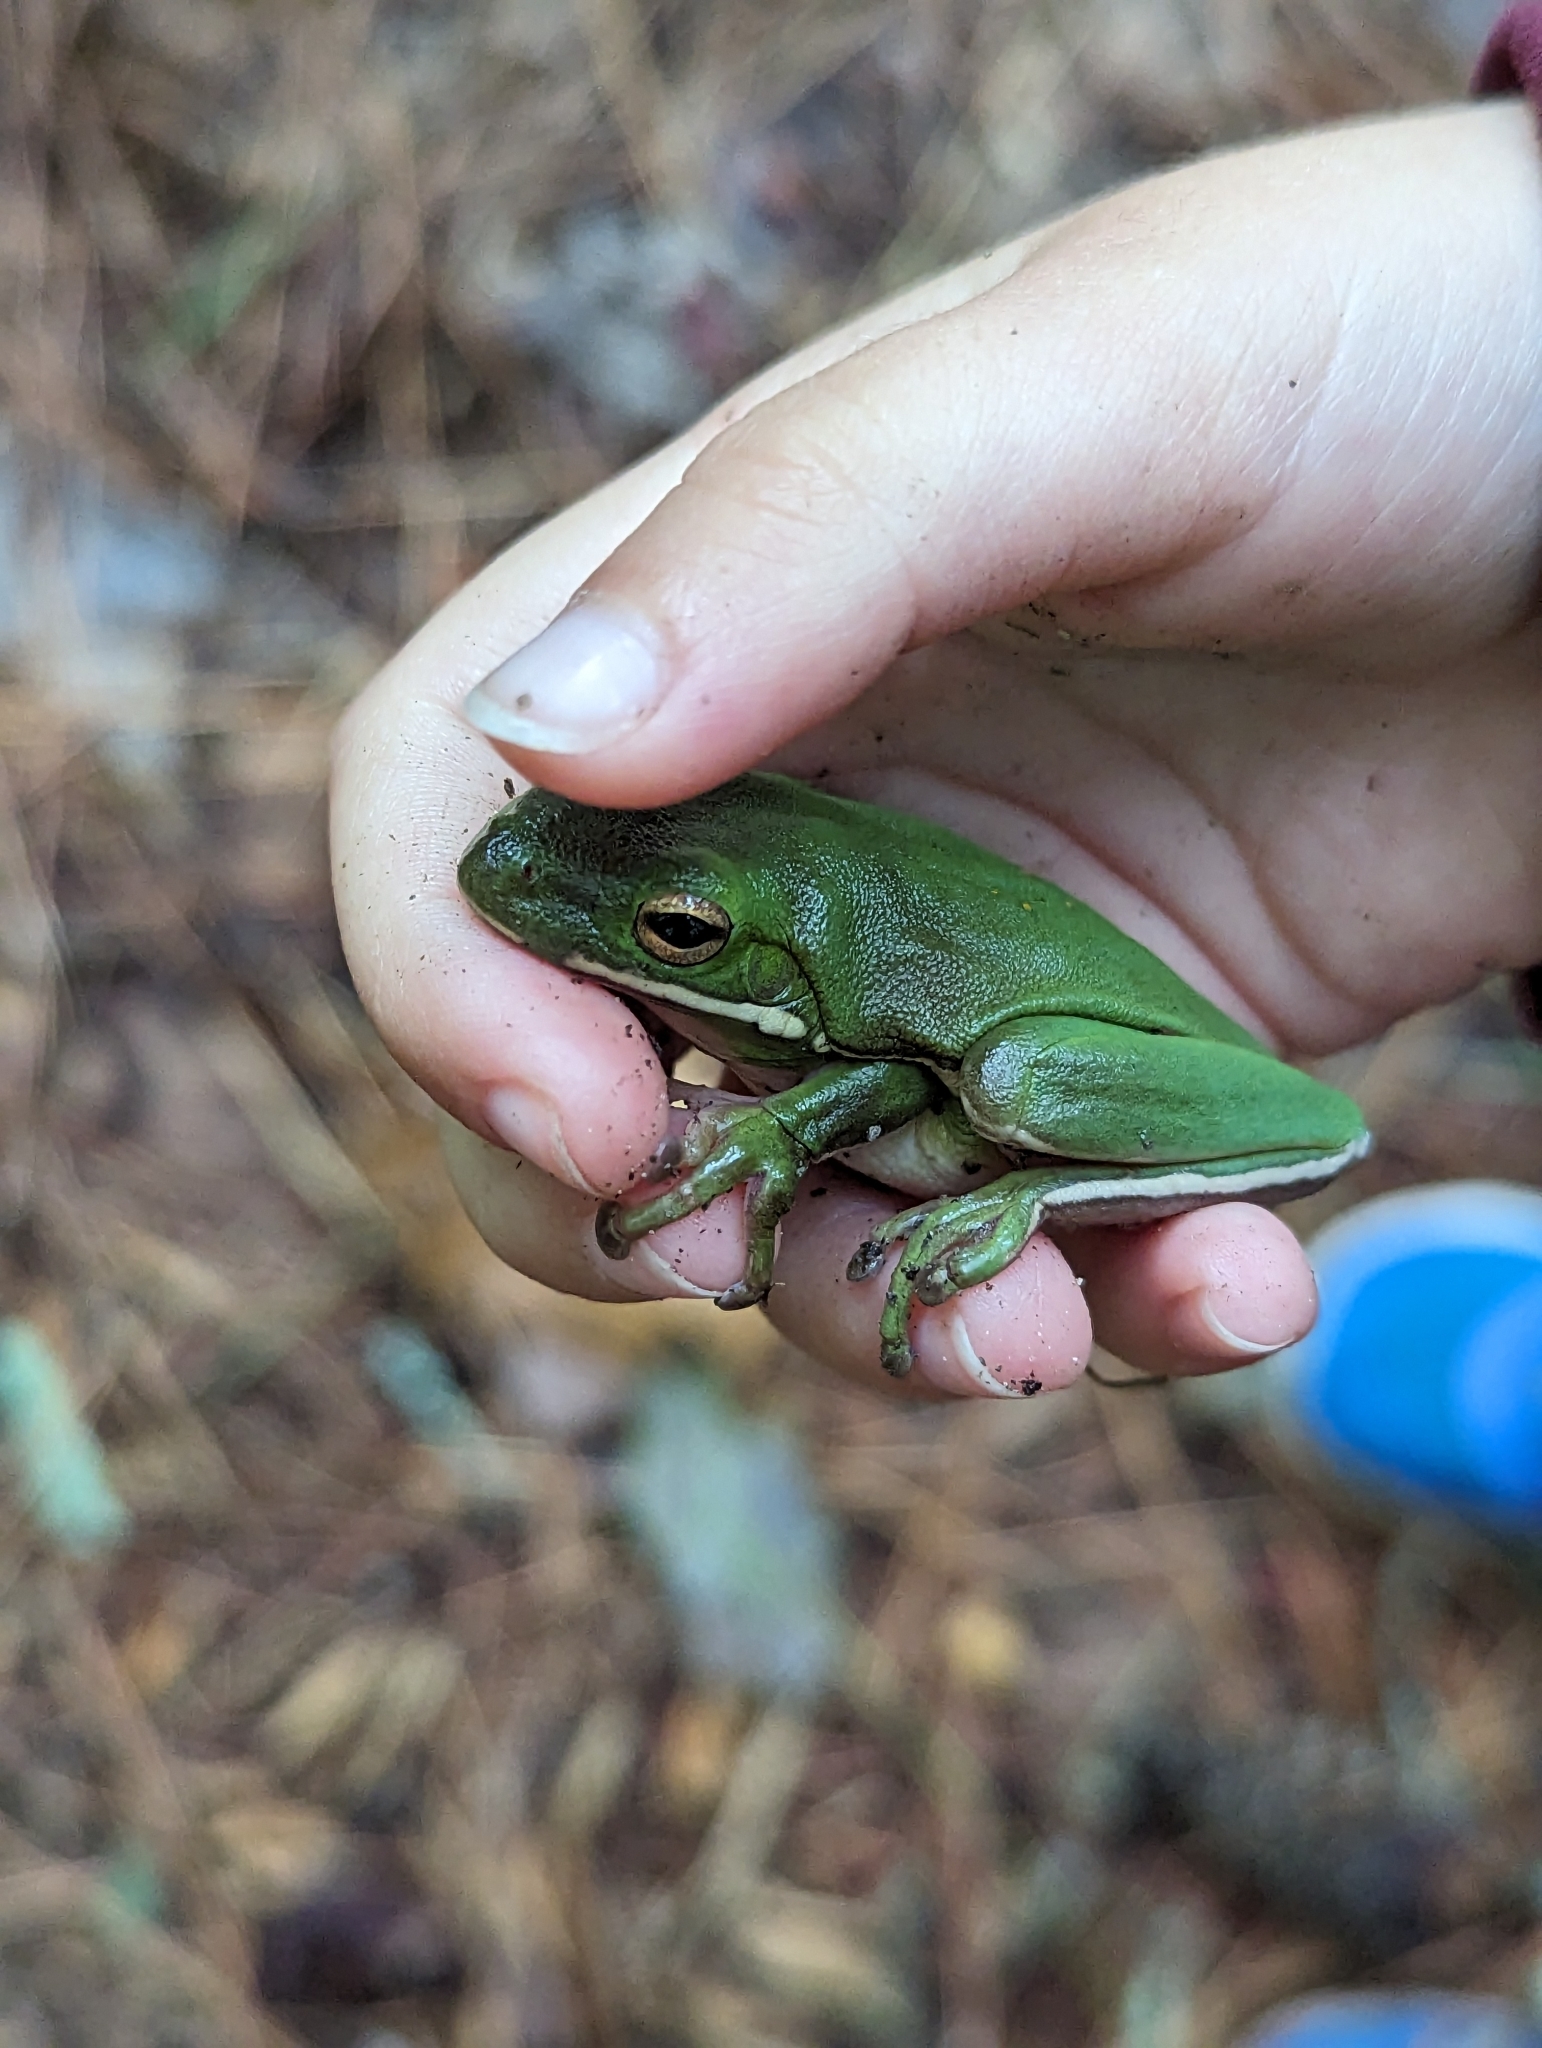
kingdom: Animalia
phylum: Chordata
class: Amphibia
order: Anura
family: Hylidae
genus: Dryophytes
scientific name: Dryophytes cinereus
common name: Green treefrog
